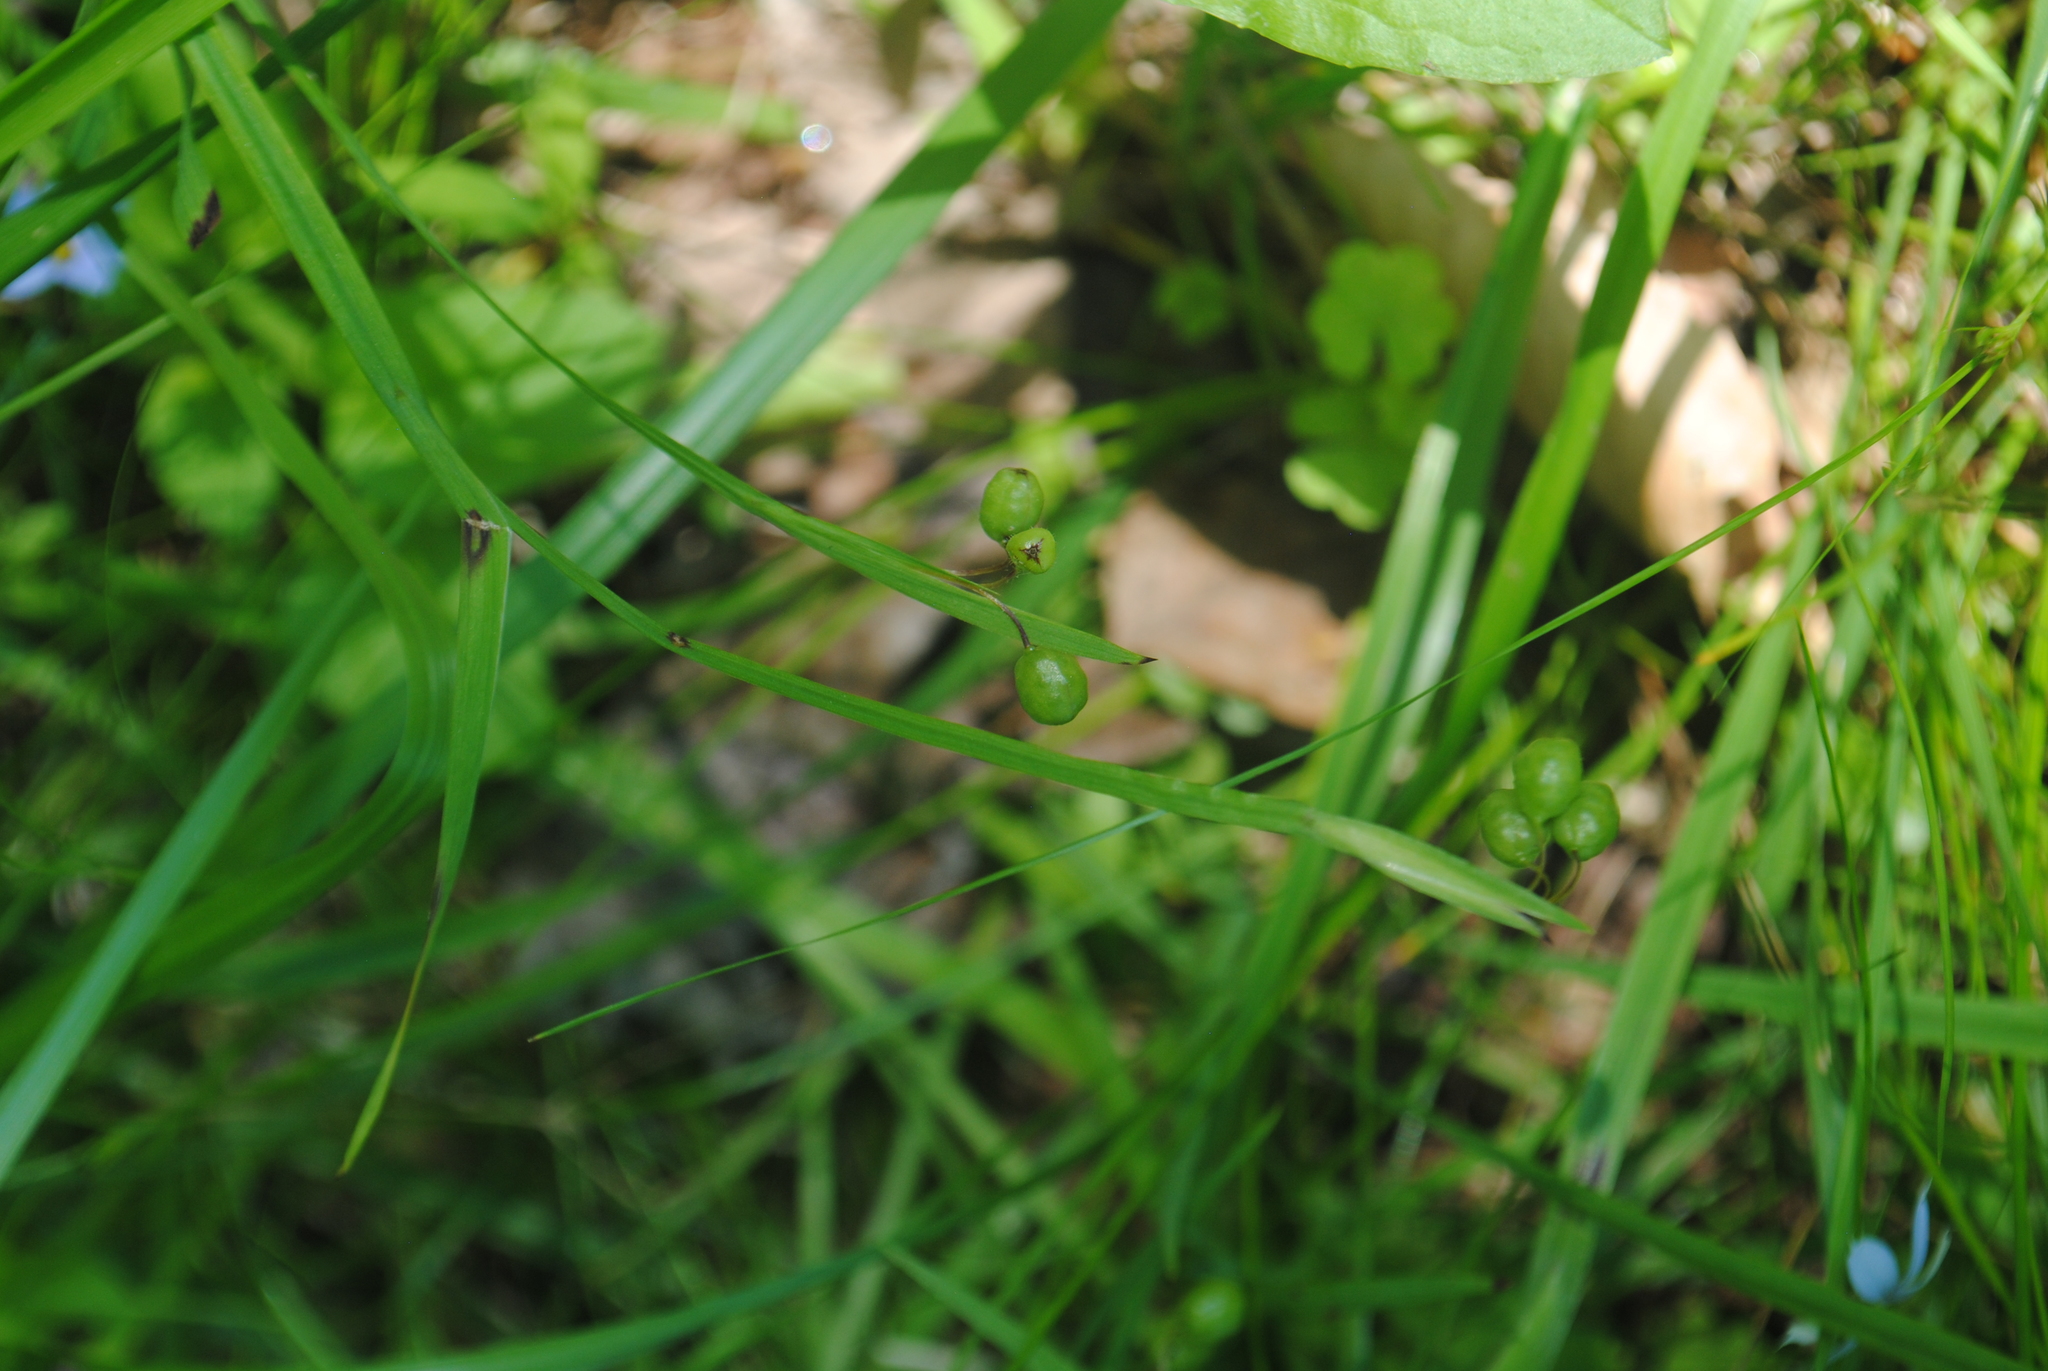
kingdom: Plantae
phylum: Tracheophyta
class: Liliopsida
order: Asparagales
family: Iridaceae
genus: Sisyrinchium
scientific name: Sisyrinchium angustifolium
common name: Narrow-leaf blue-eyed-grass
